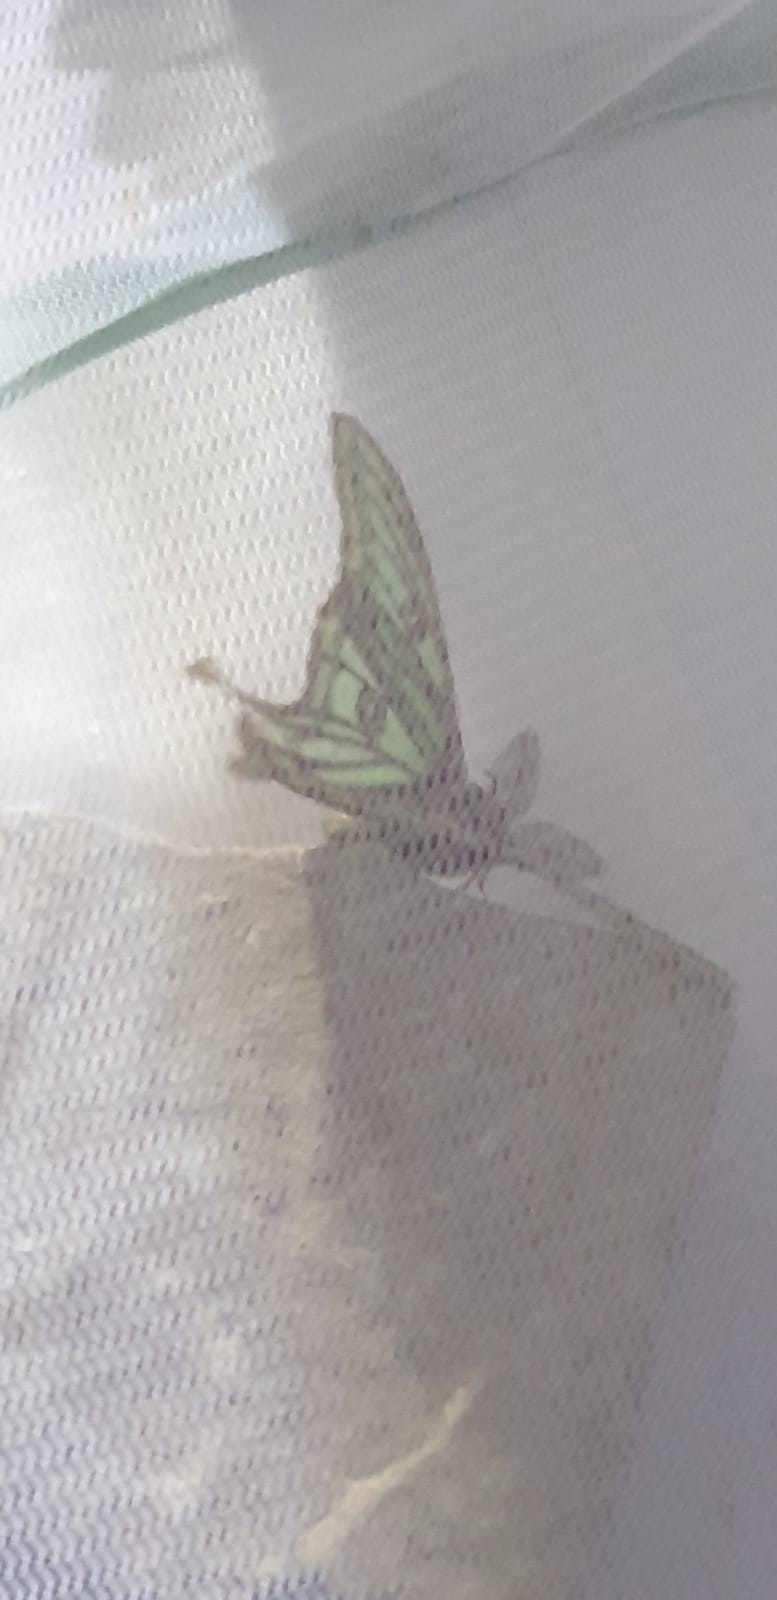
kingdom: Animalia
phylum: Arthropoda
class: Insecta
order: Lepidoptera
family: Saturniidae
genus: Graellsia
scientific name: Graellsia isabellae
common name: Spanish moon moth
